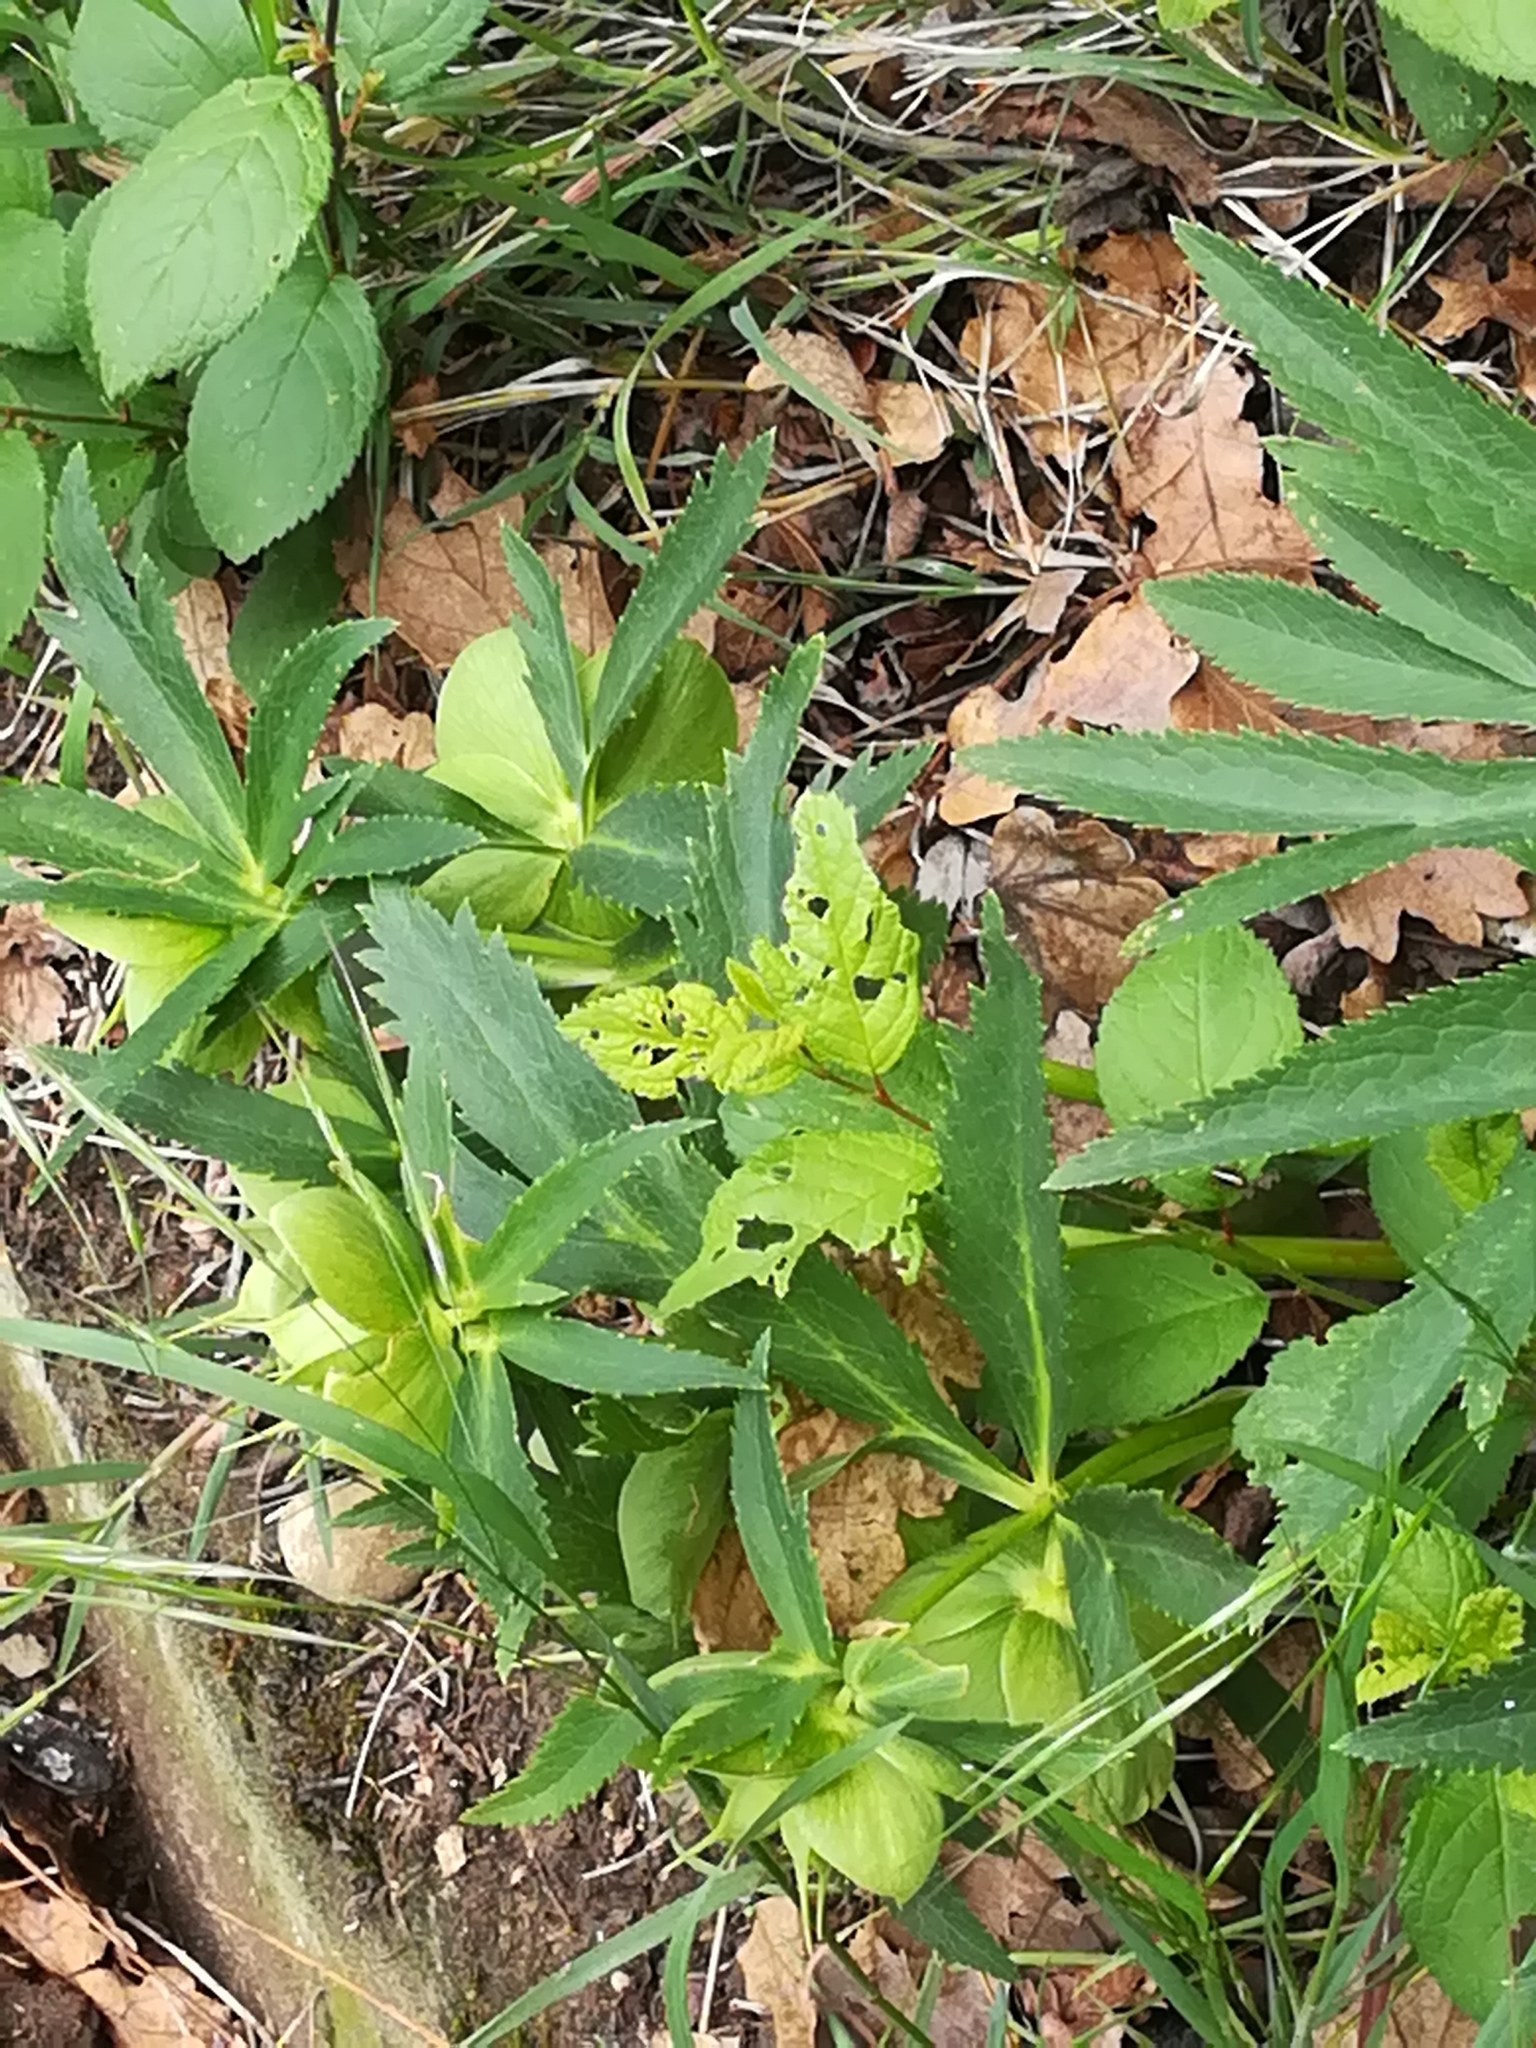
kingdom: Plantae
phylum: Tracheophyta
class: Magnoliopsida
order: Ranunculales
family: Ranunculaceae
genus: Helleborus
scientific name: Helleborus viridis
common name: Green hellebore
